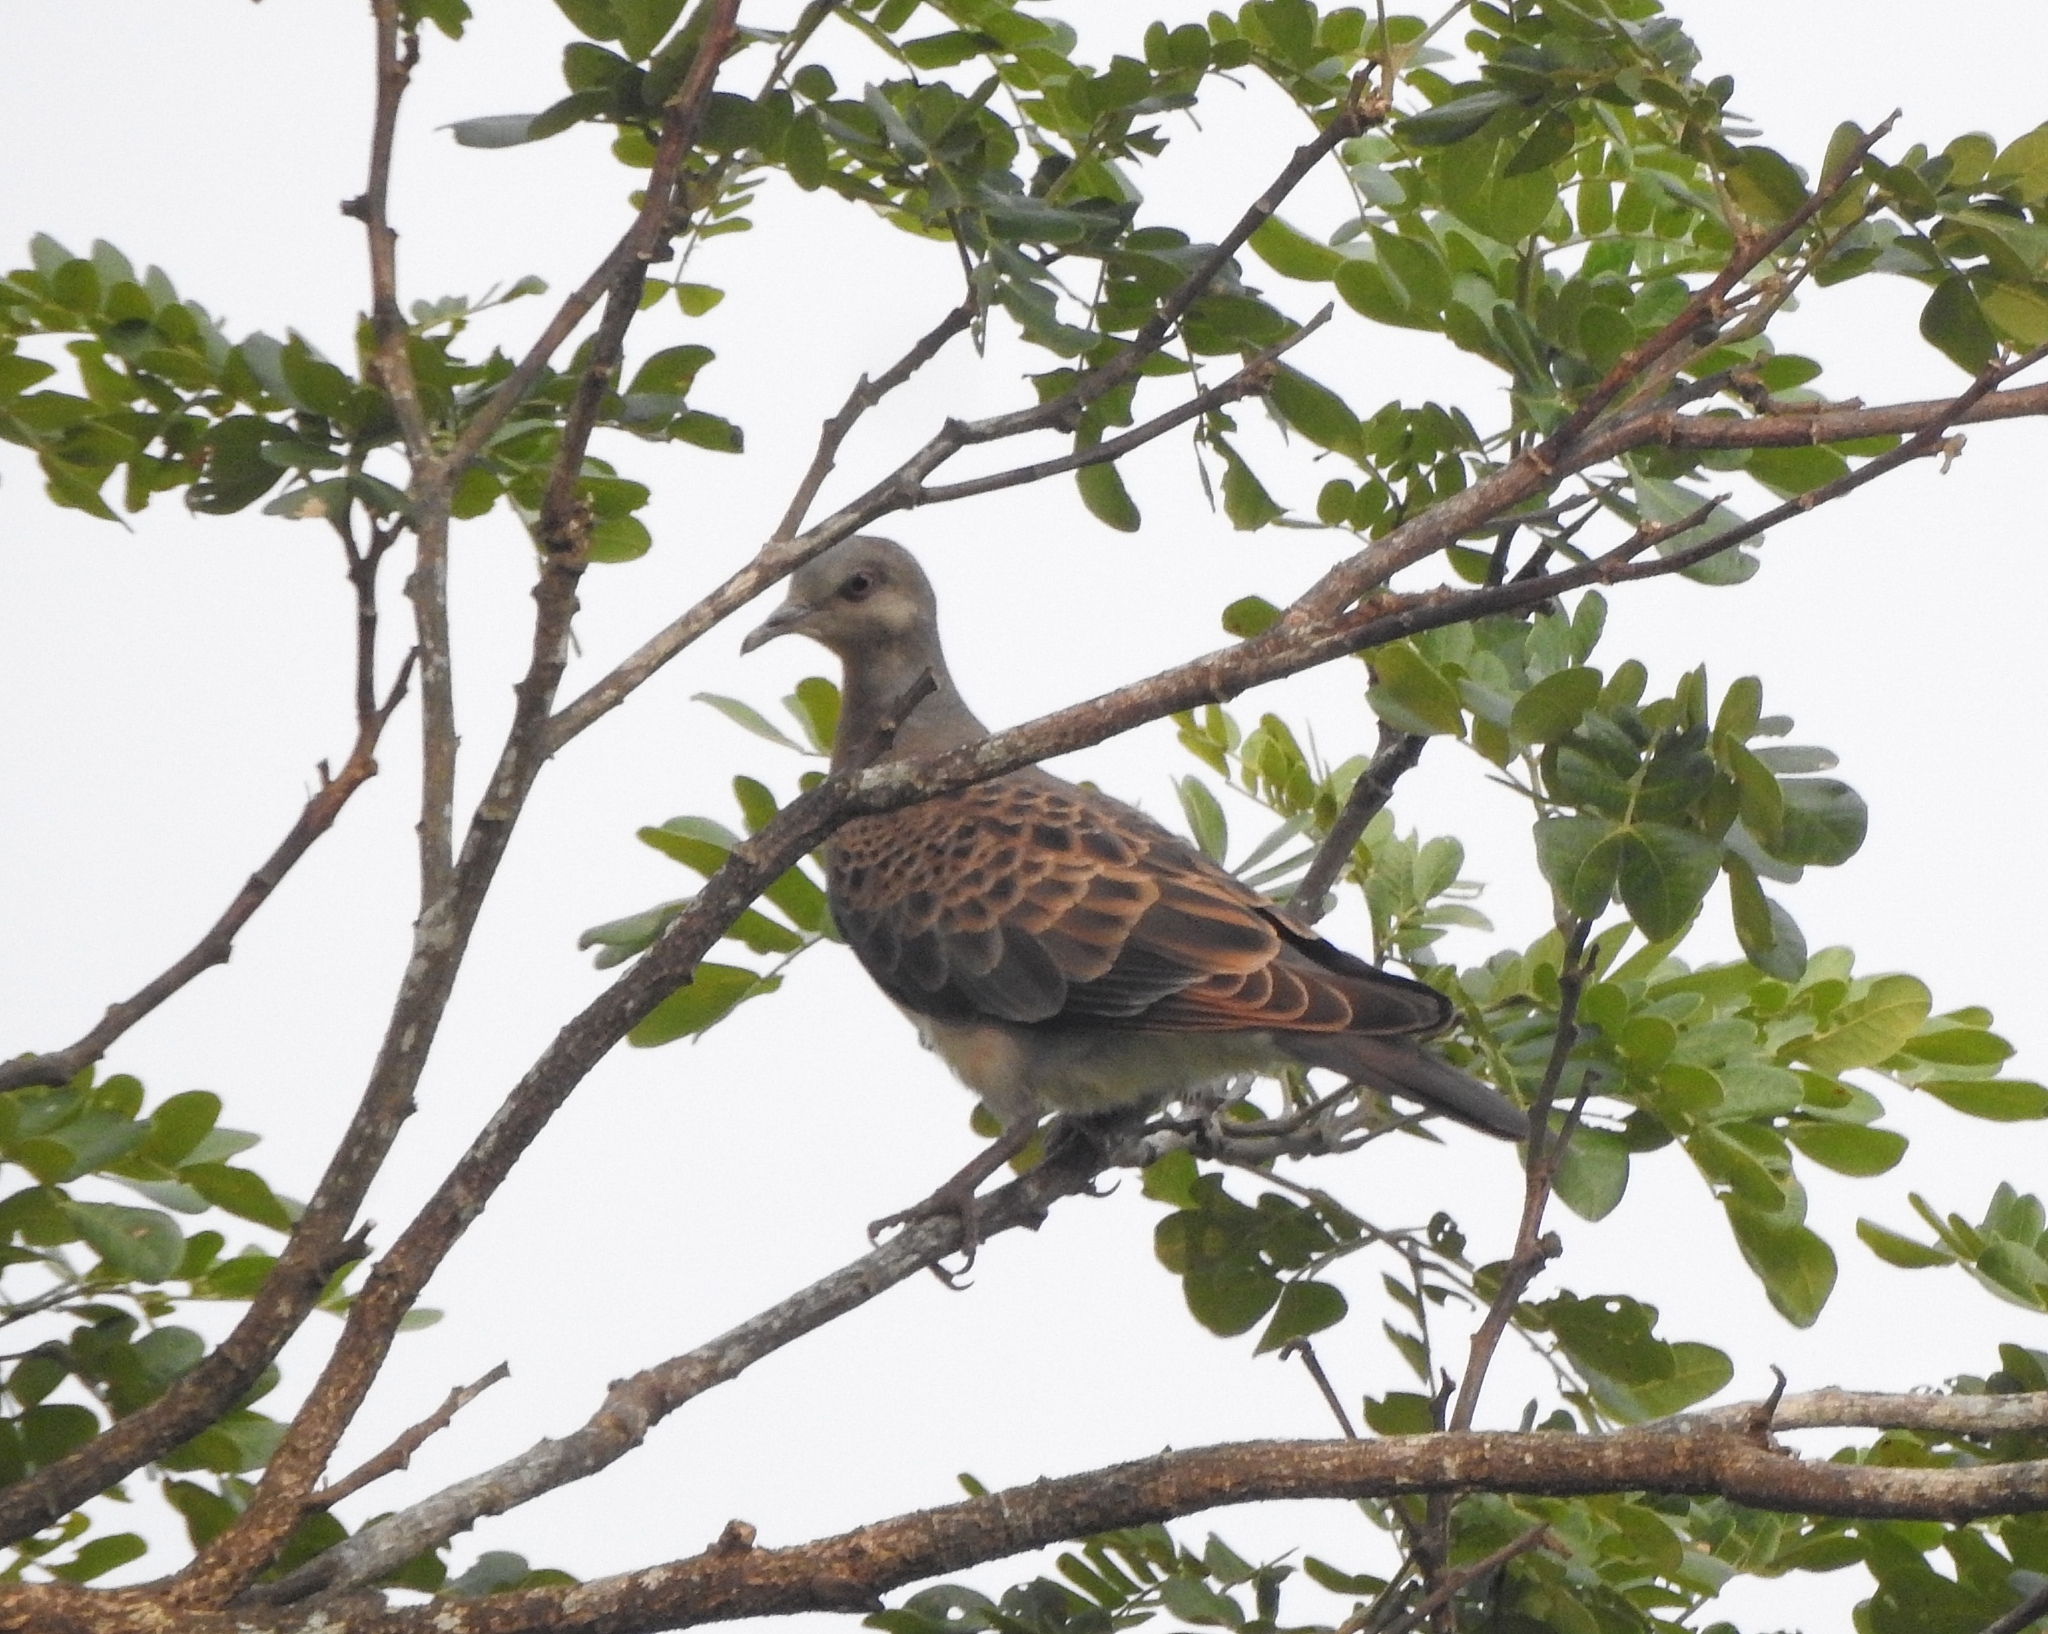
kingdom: Animalia
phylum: Chordata
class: Aves
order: Columbiformes
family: Columbidae
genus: Streptopelia
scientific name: Streptopelia orientalis
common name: Oriental turtle dove
